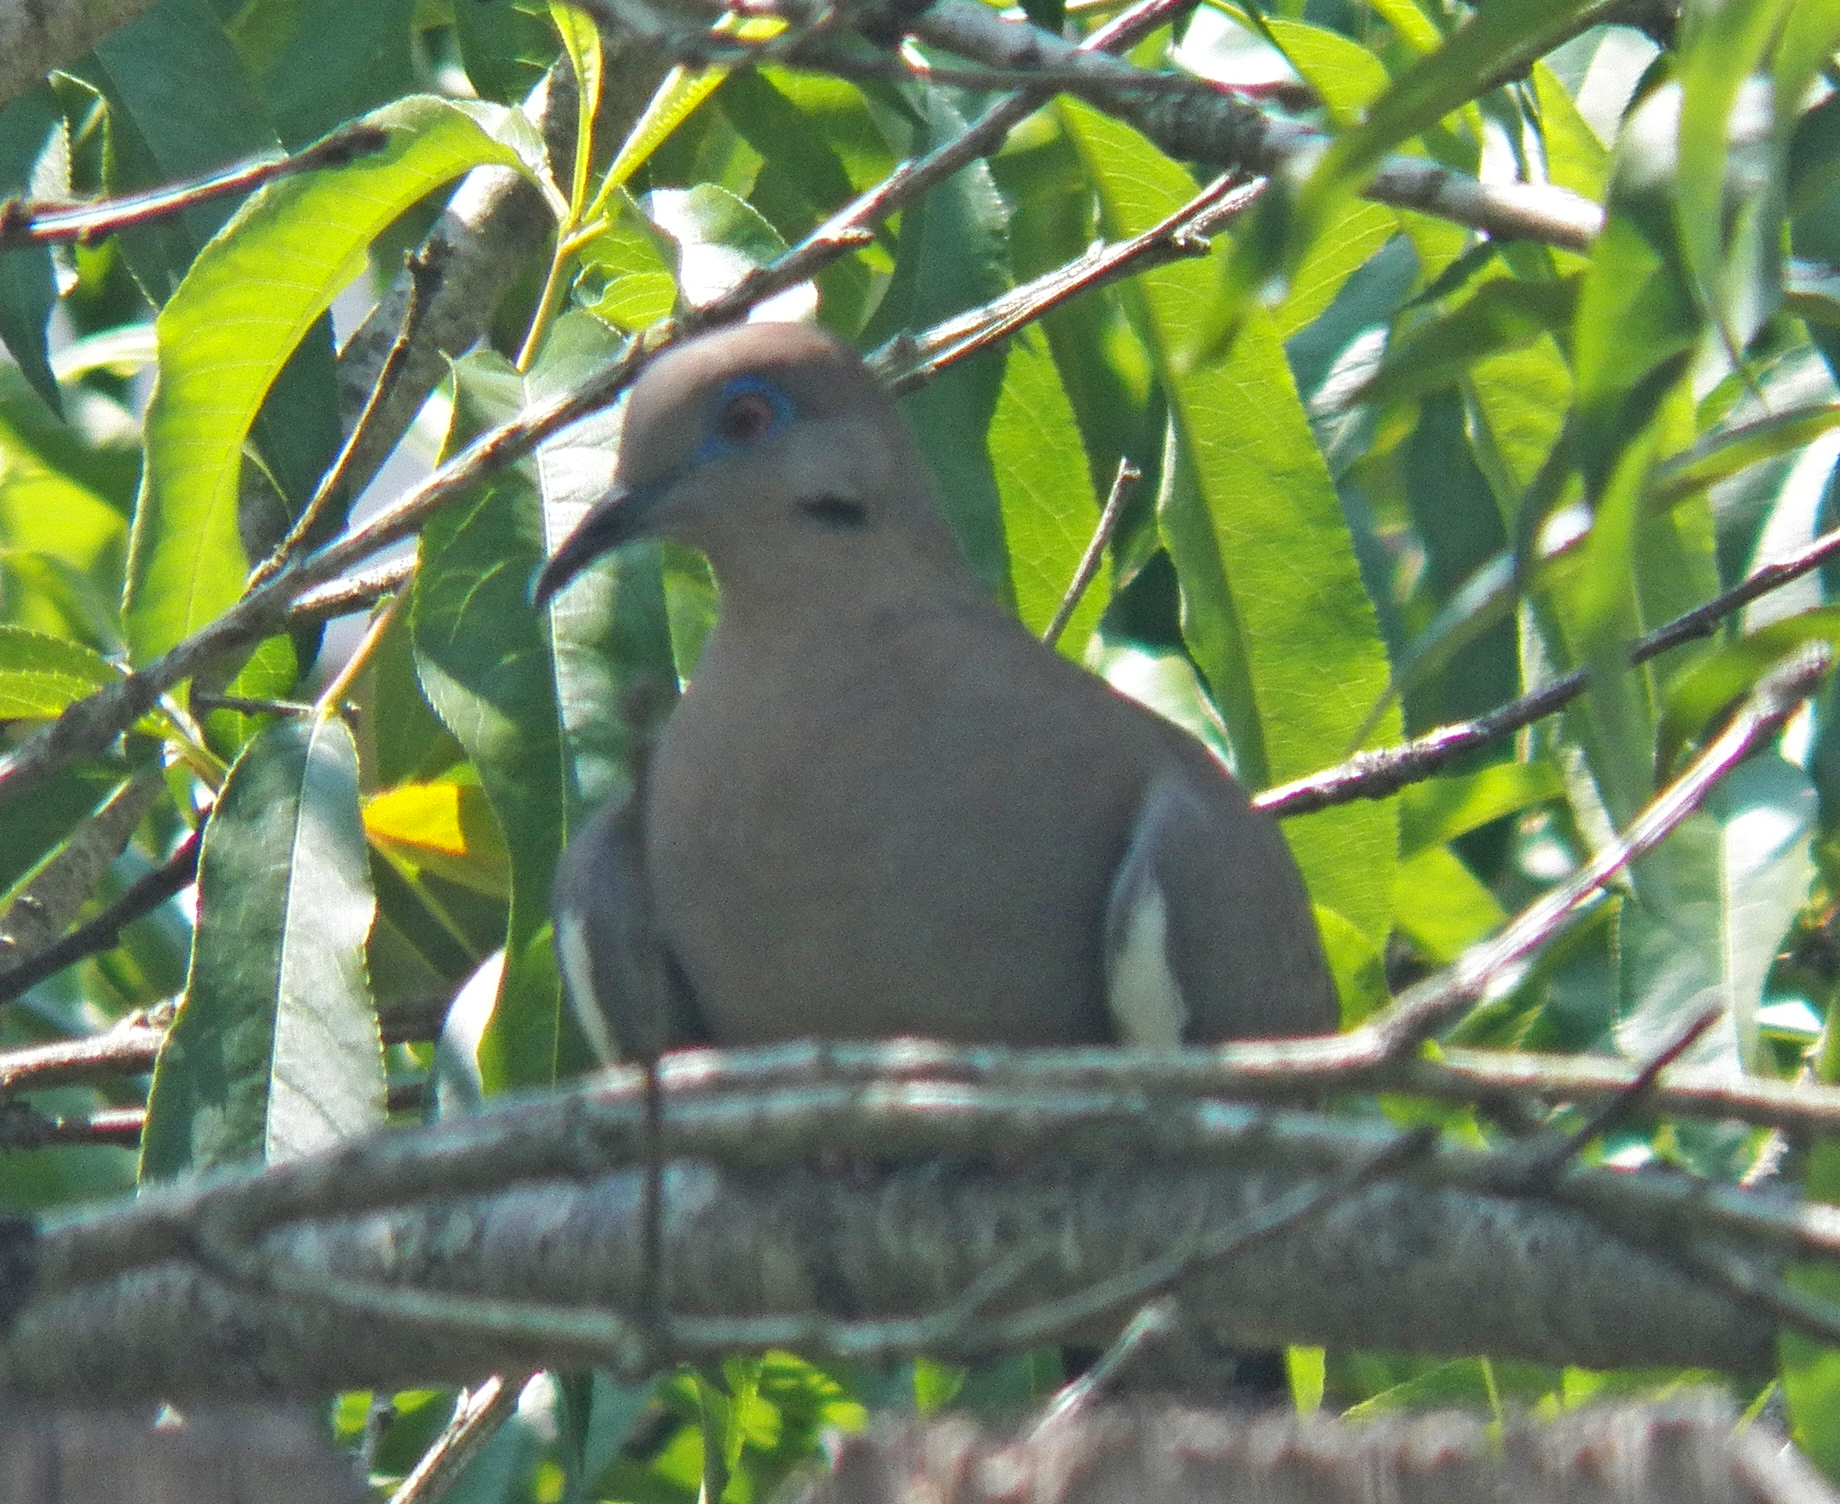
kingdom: Animalia
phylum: Chordata
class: Aves
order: Columbiformes
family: Columbidae
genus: Zenaida
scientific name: Zenaida asiatica
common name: White-winged dove
